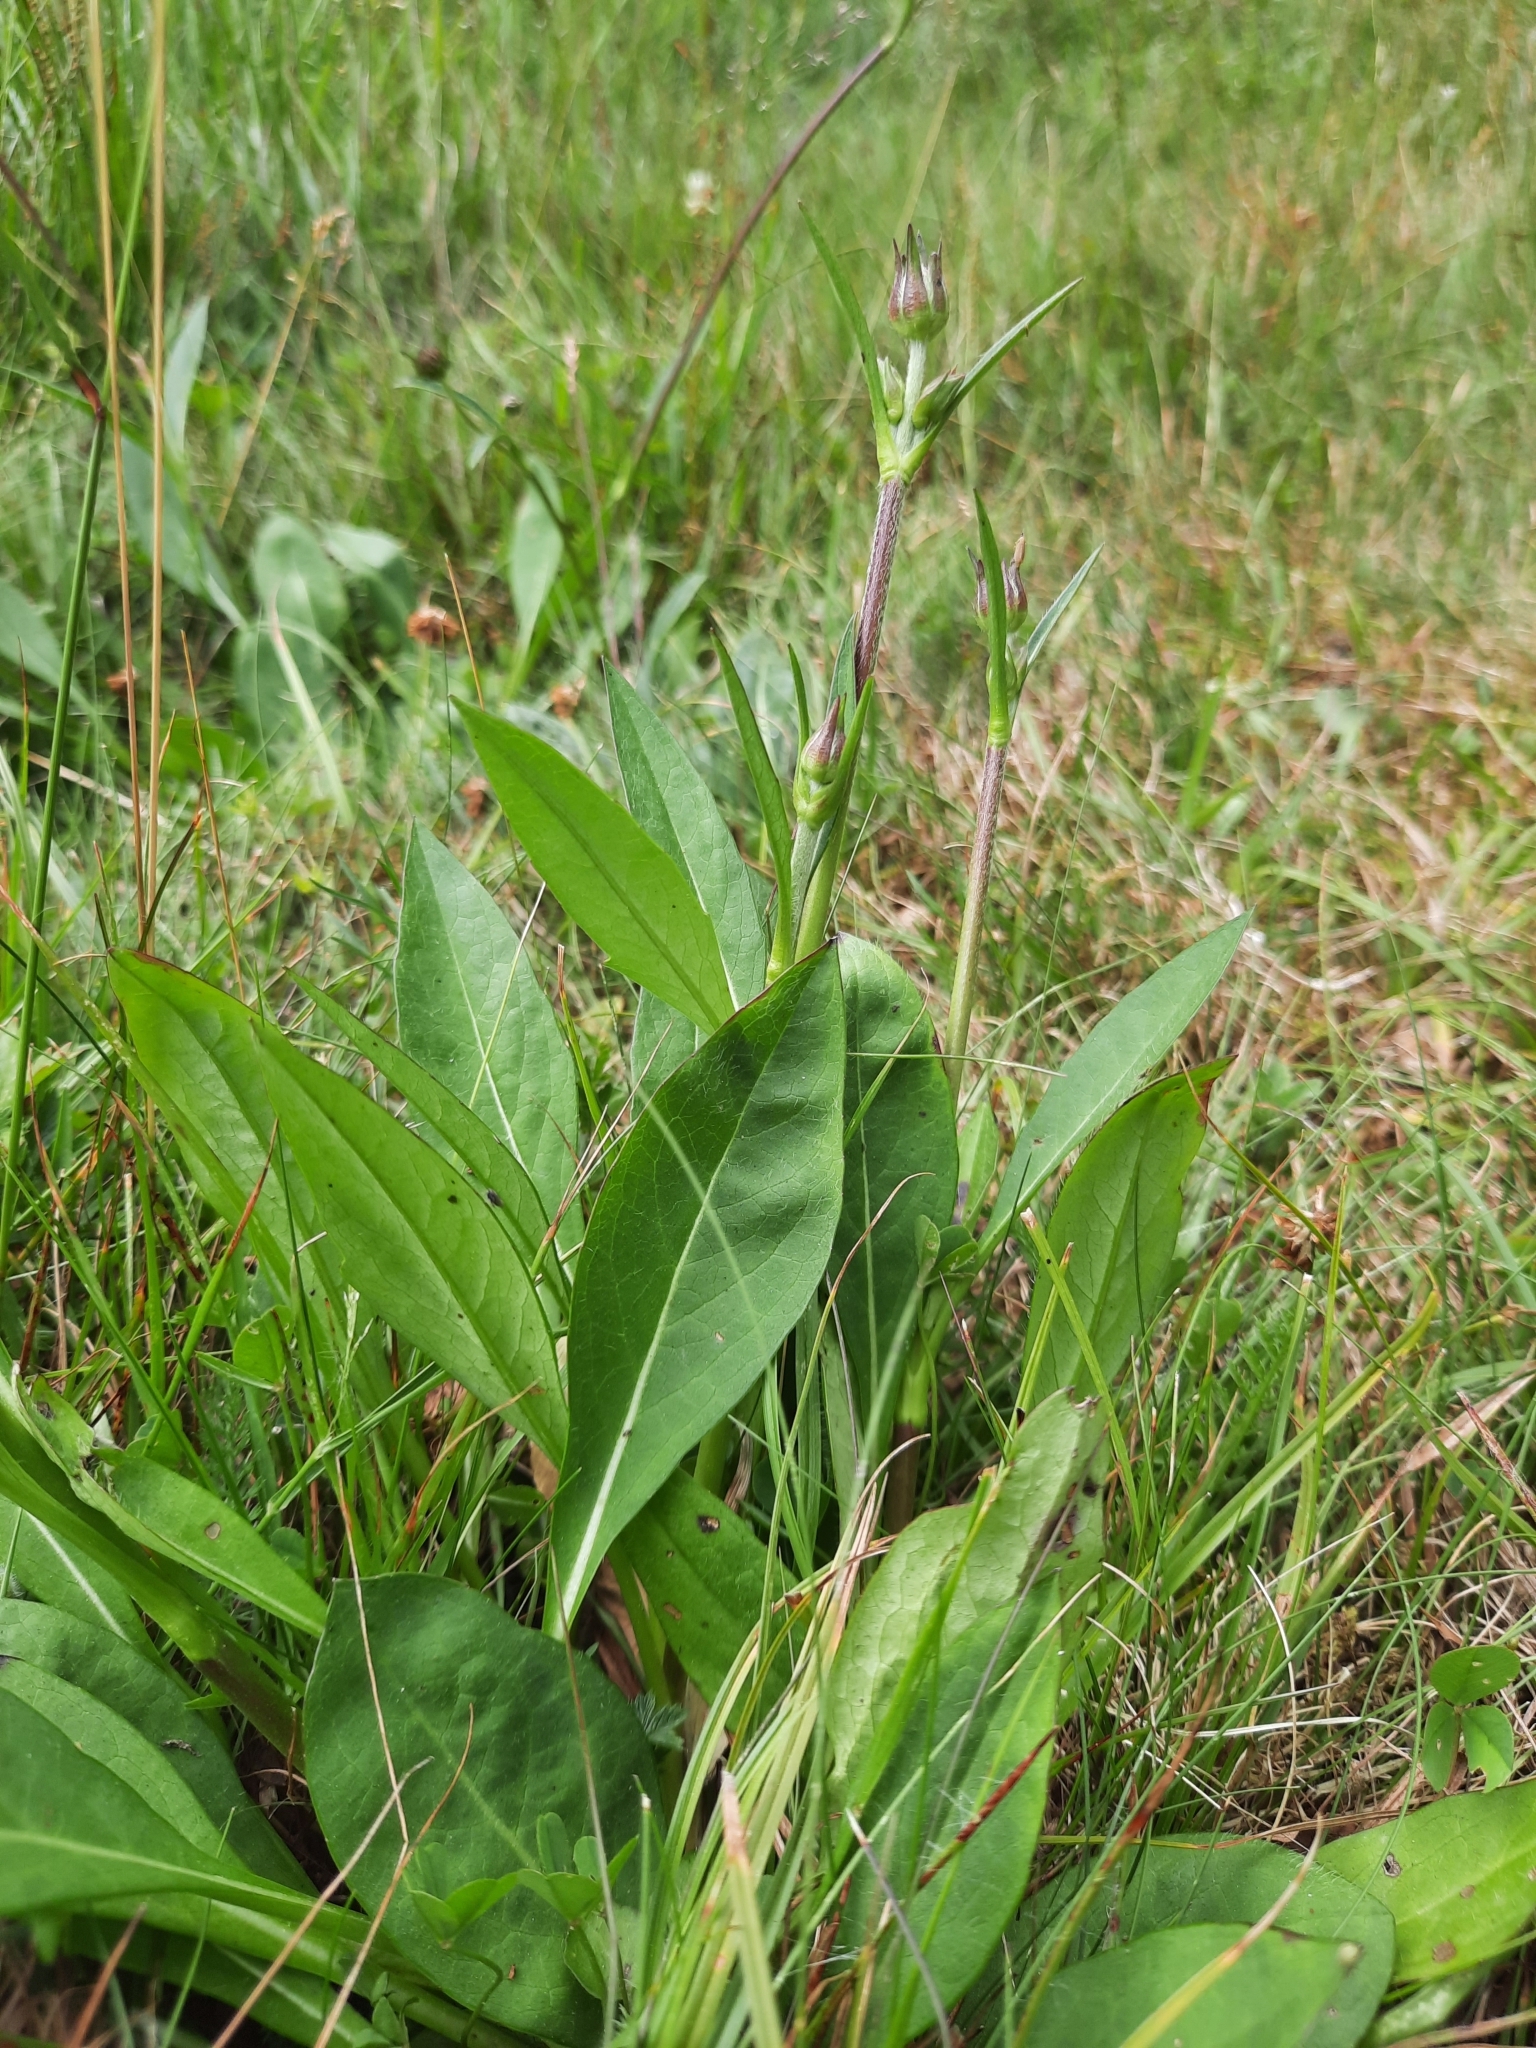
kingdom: Plantae
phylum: Tracheophyta
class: Magnoliopsida
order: Dipsacales
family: Caprifoliaceae
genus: Succisa
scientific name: Succisa pratensis
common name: Devil's-bit
